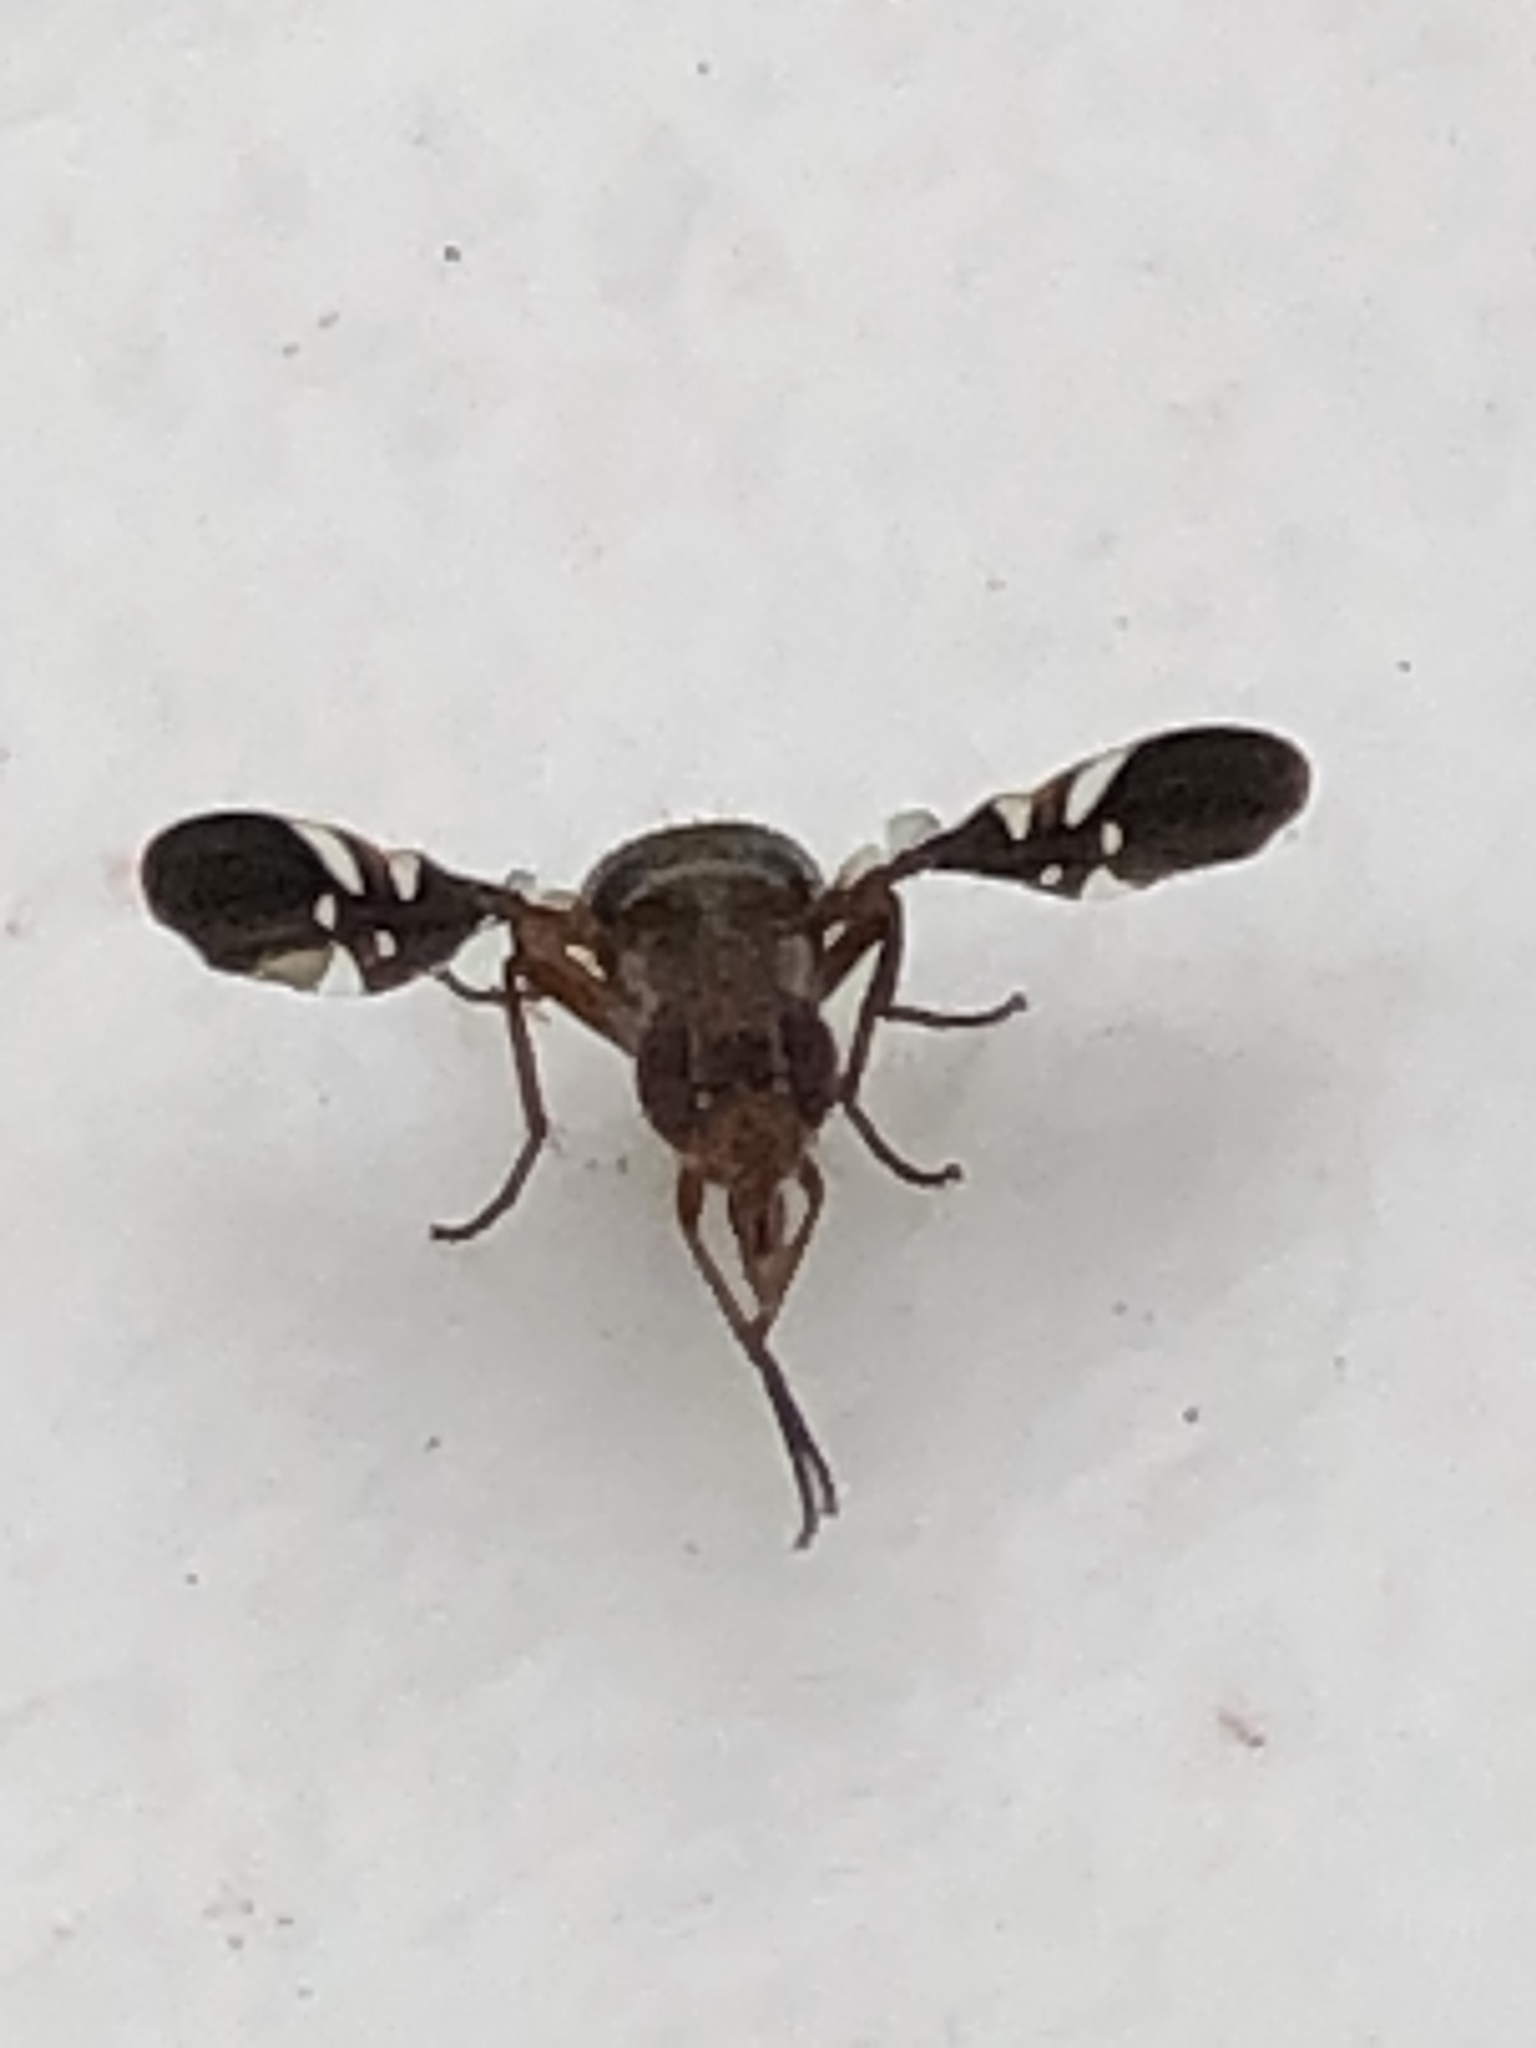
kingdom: Animalia
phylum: Arthropoda
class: Insecta
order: Diptera
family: Ulidiidae
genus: Delphinia
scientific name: Delphinia picta
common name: Common picture-winged fly
